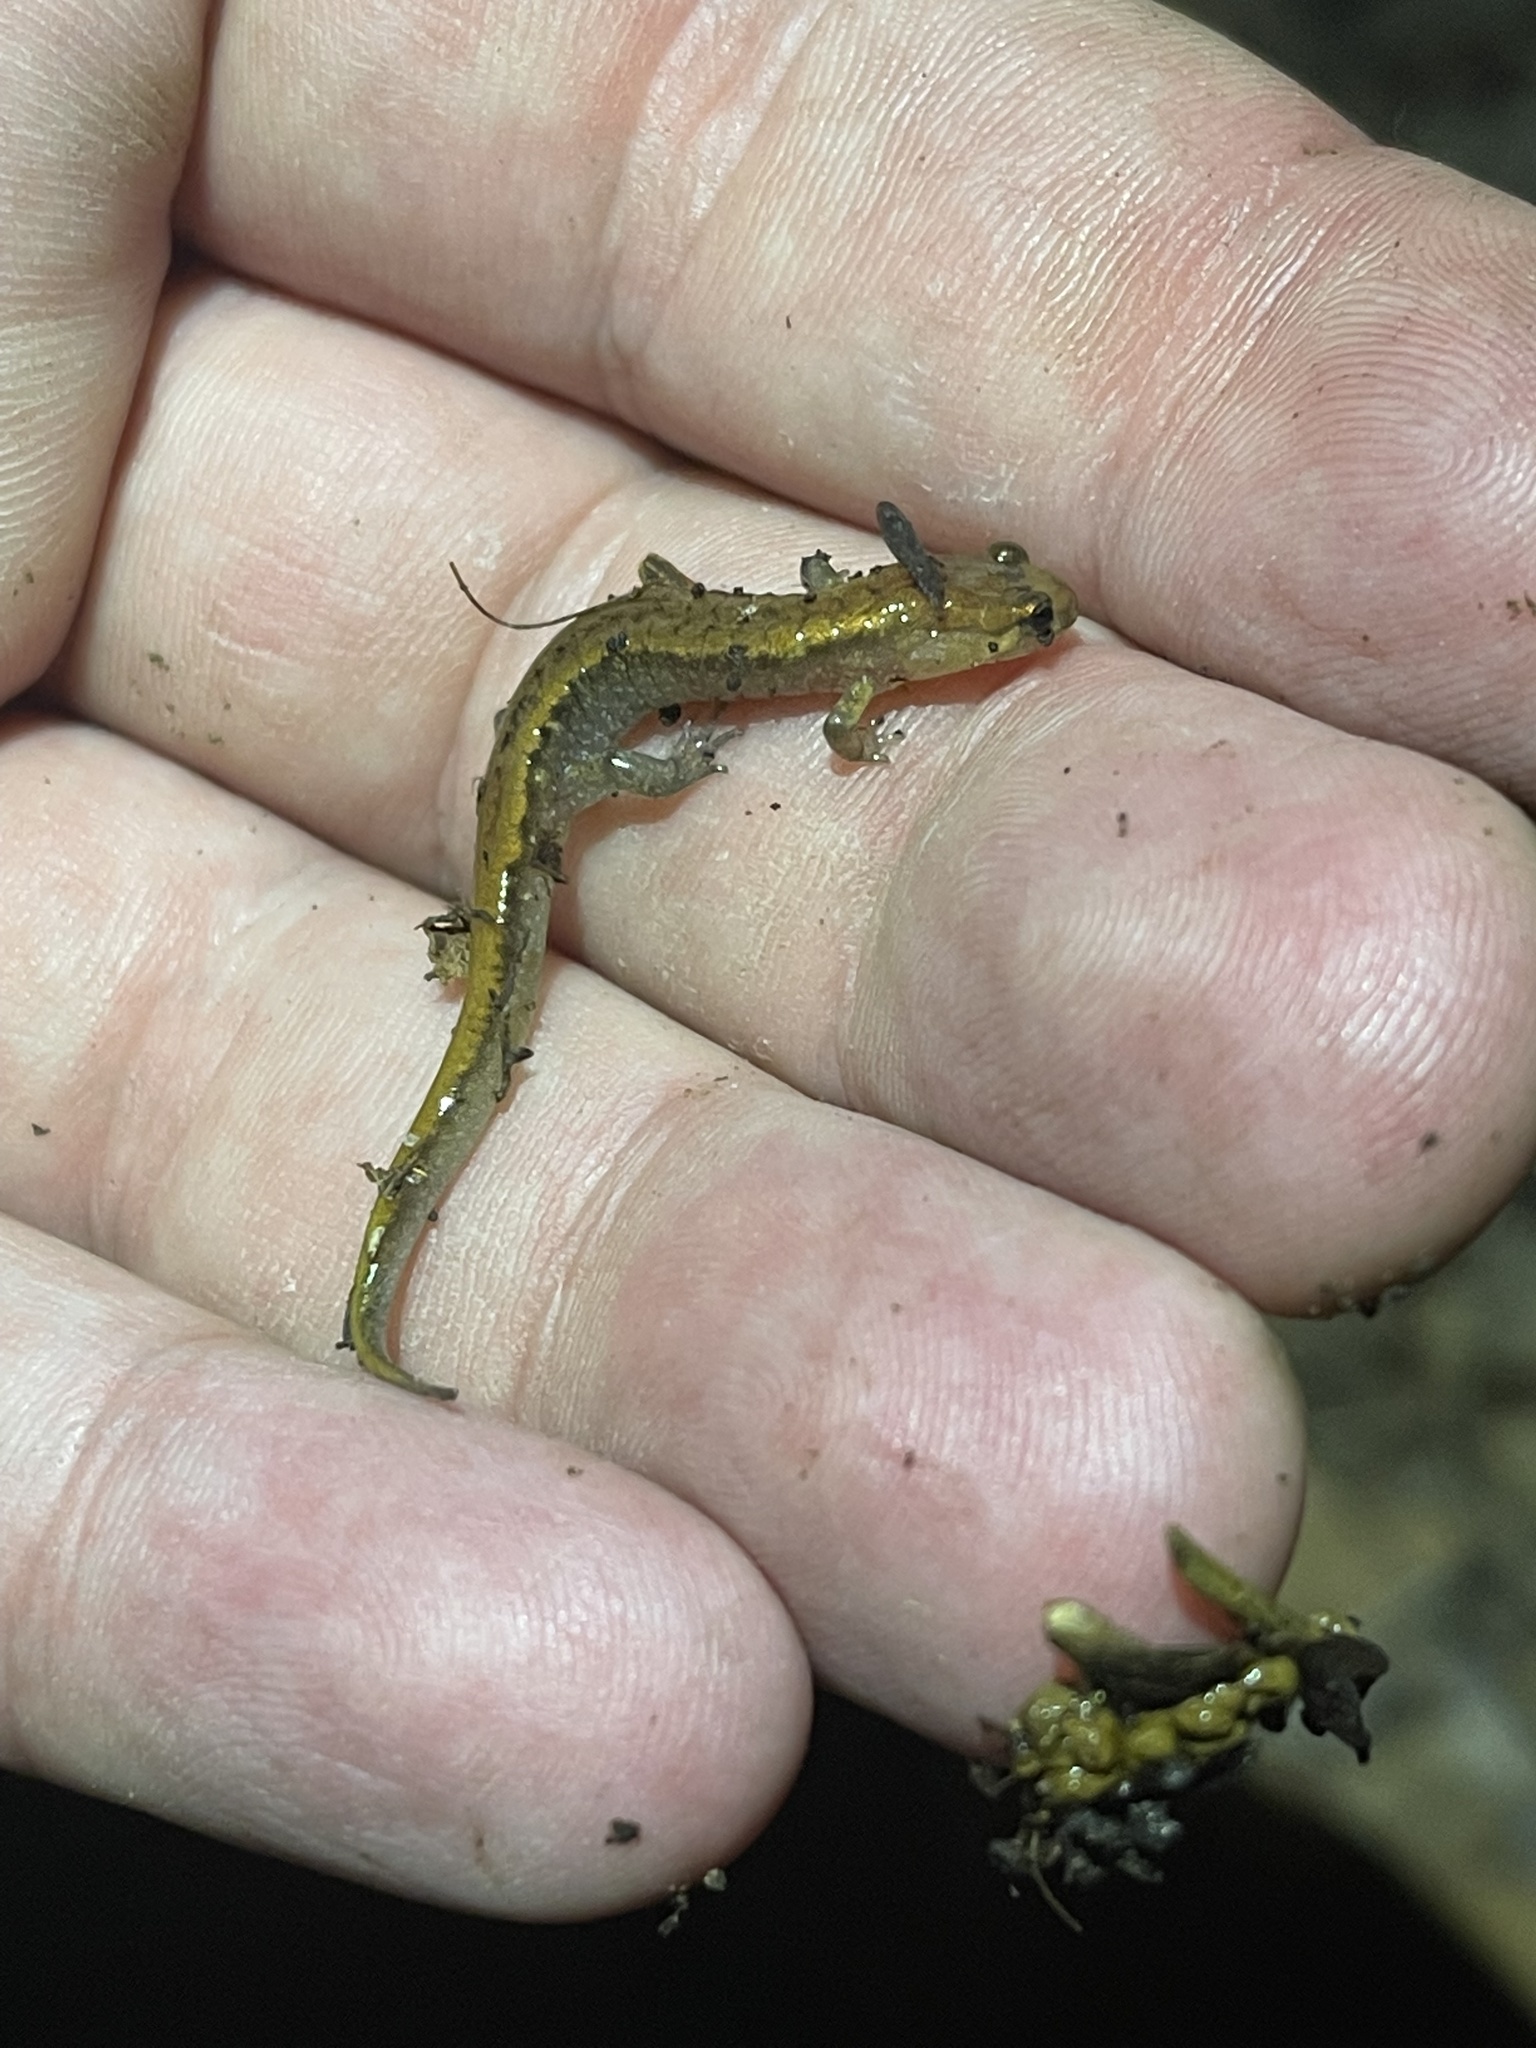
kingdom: Animalia
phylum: Chordata
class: Amphibia
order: Caudata
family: Plethodontidae
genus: Desmognathus
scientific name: Desmognathus ochrophaeus
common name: Allegheny mountain dusky salamander
